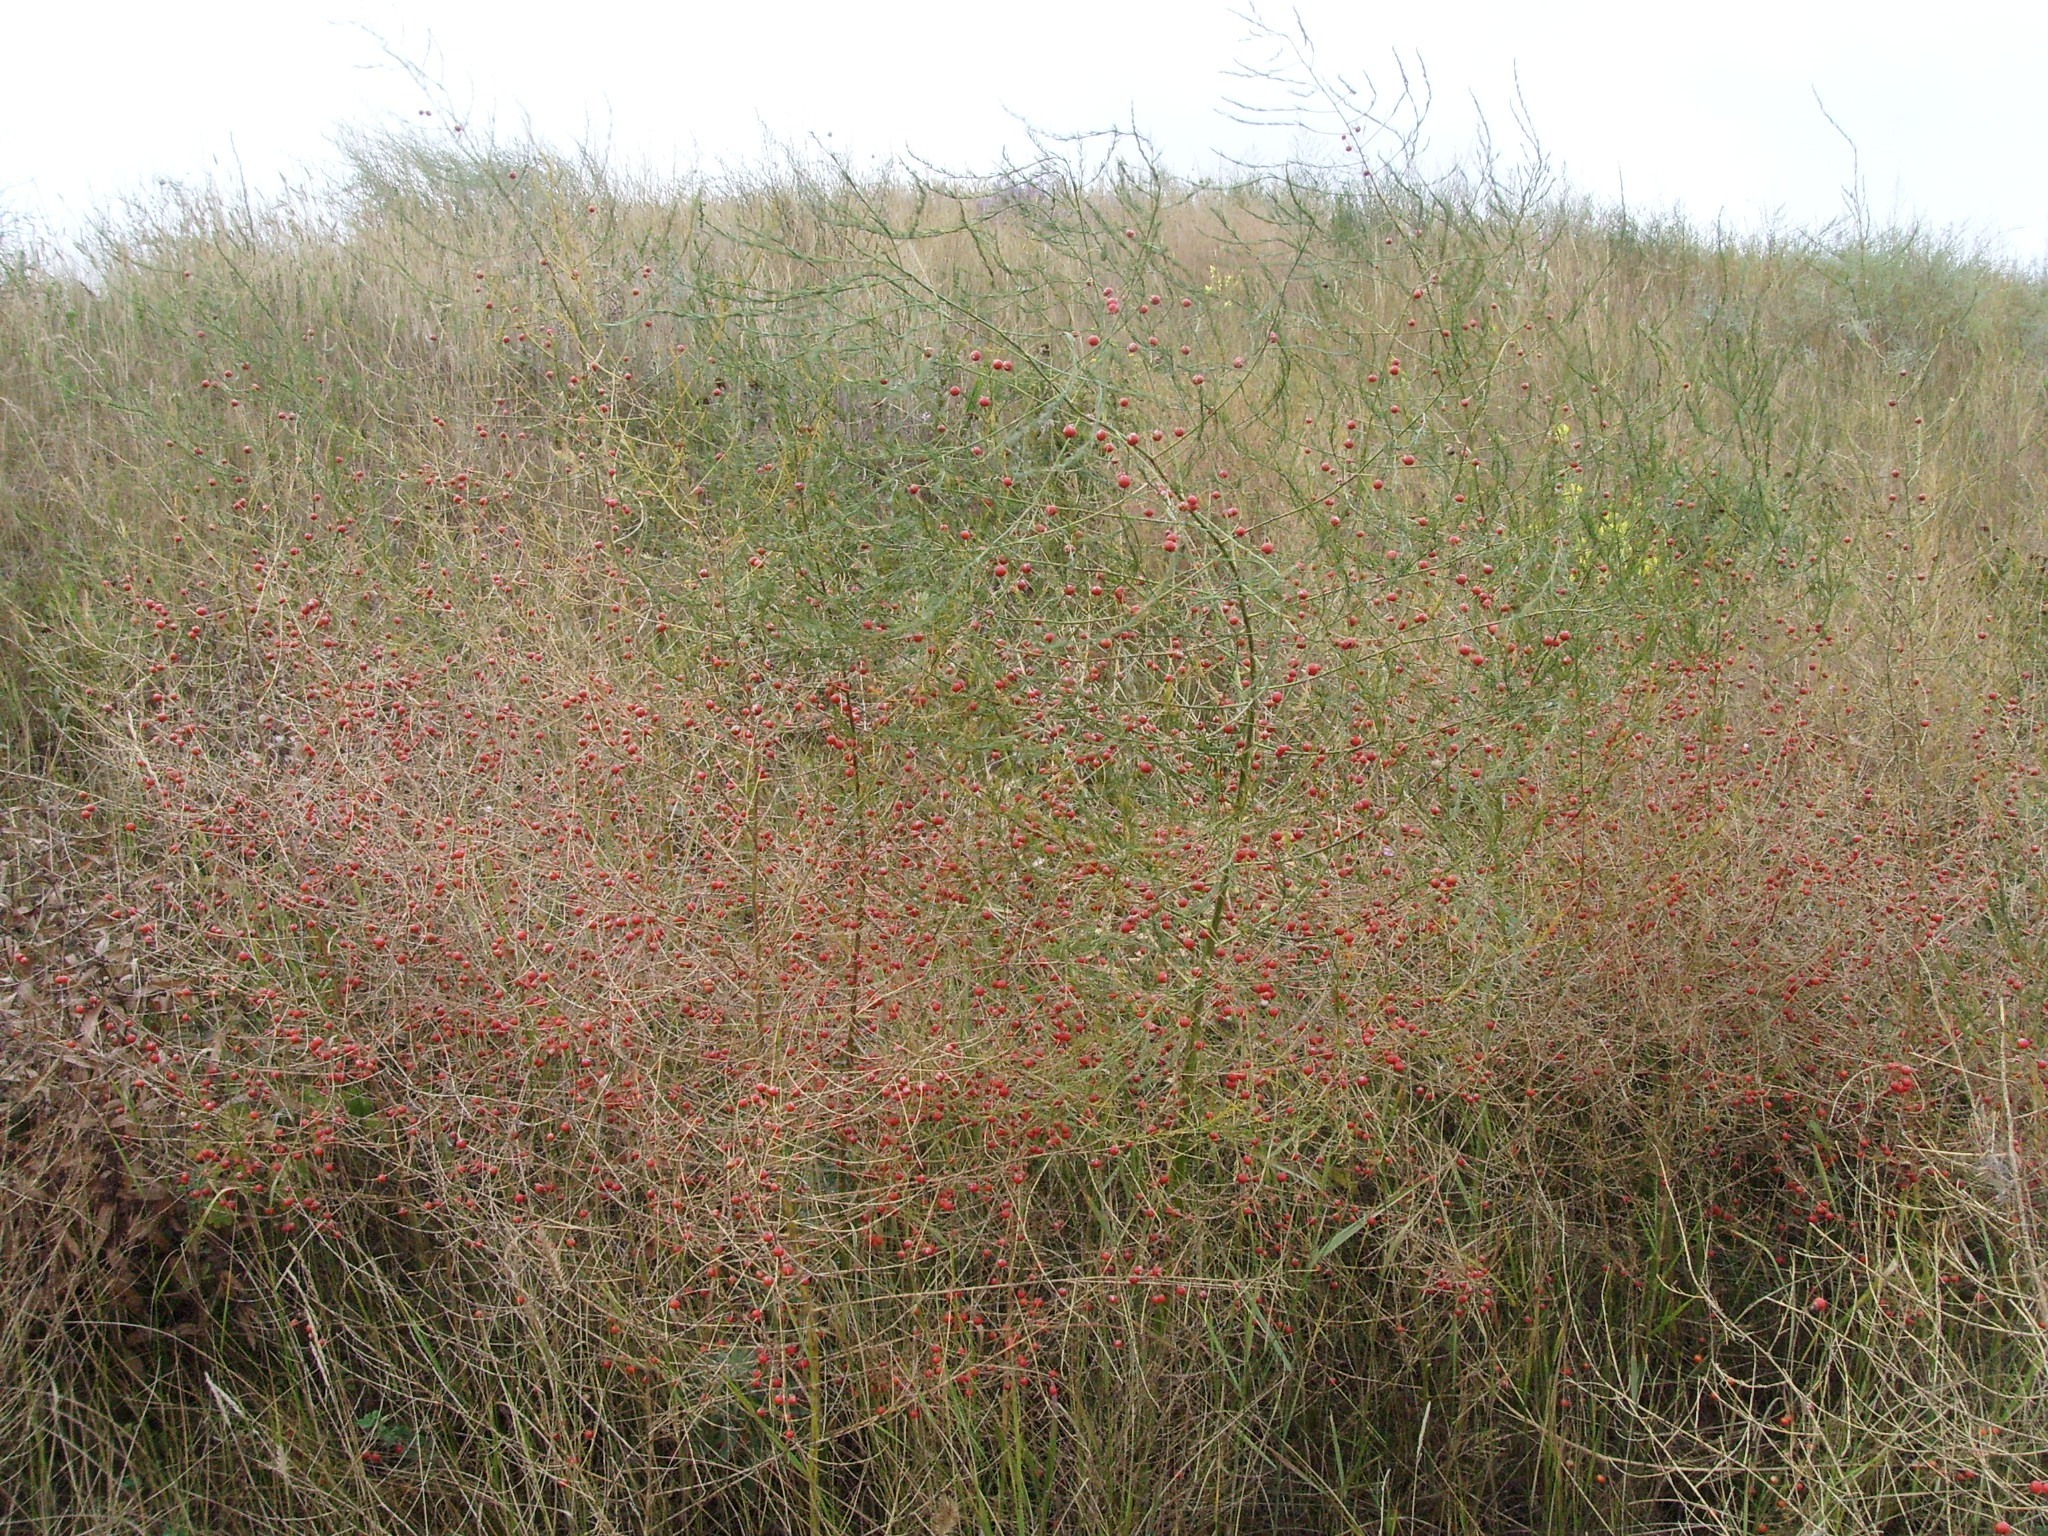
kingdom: Plantae
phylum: Tracheophyta
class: Liliopsida
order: Asparagales
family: Asparagaceae
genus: Asparagus
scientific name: Asparagus officinalis
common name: Garden asparagus
